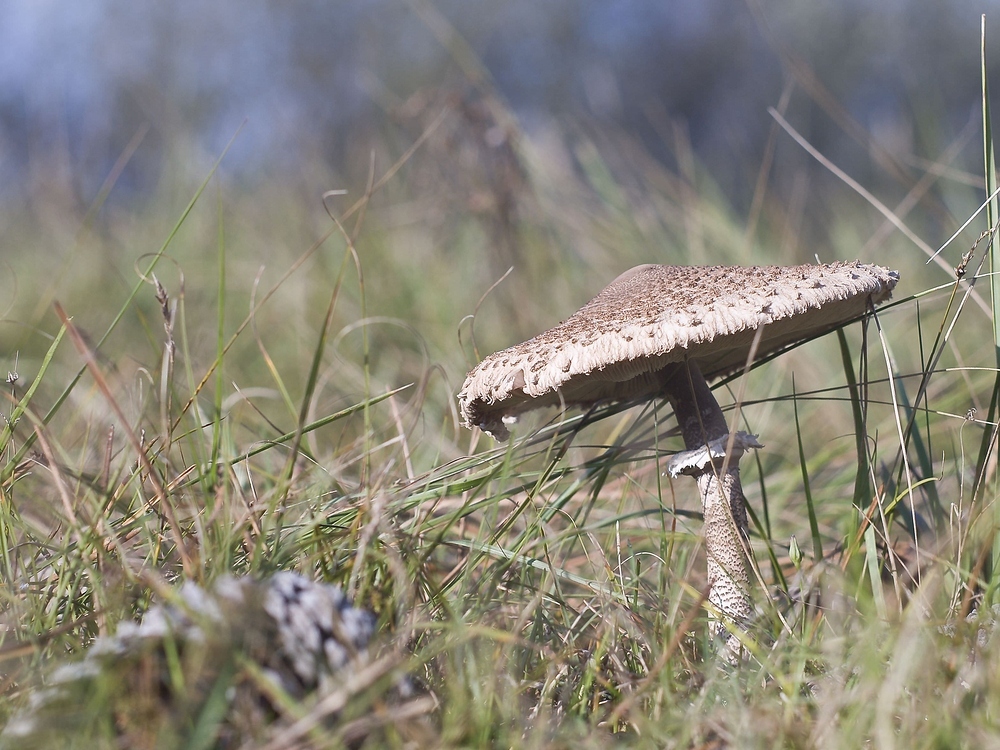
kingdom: Fungi
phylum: Basidiomycota
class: Agaricomycetes
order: Agaricales
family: Agaricaceae
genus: Macrolepiota
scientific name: Macrolepiota procera
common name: Parasol
